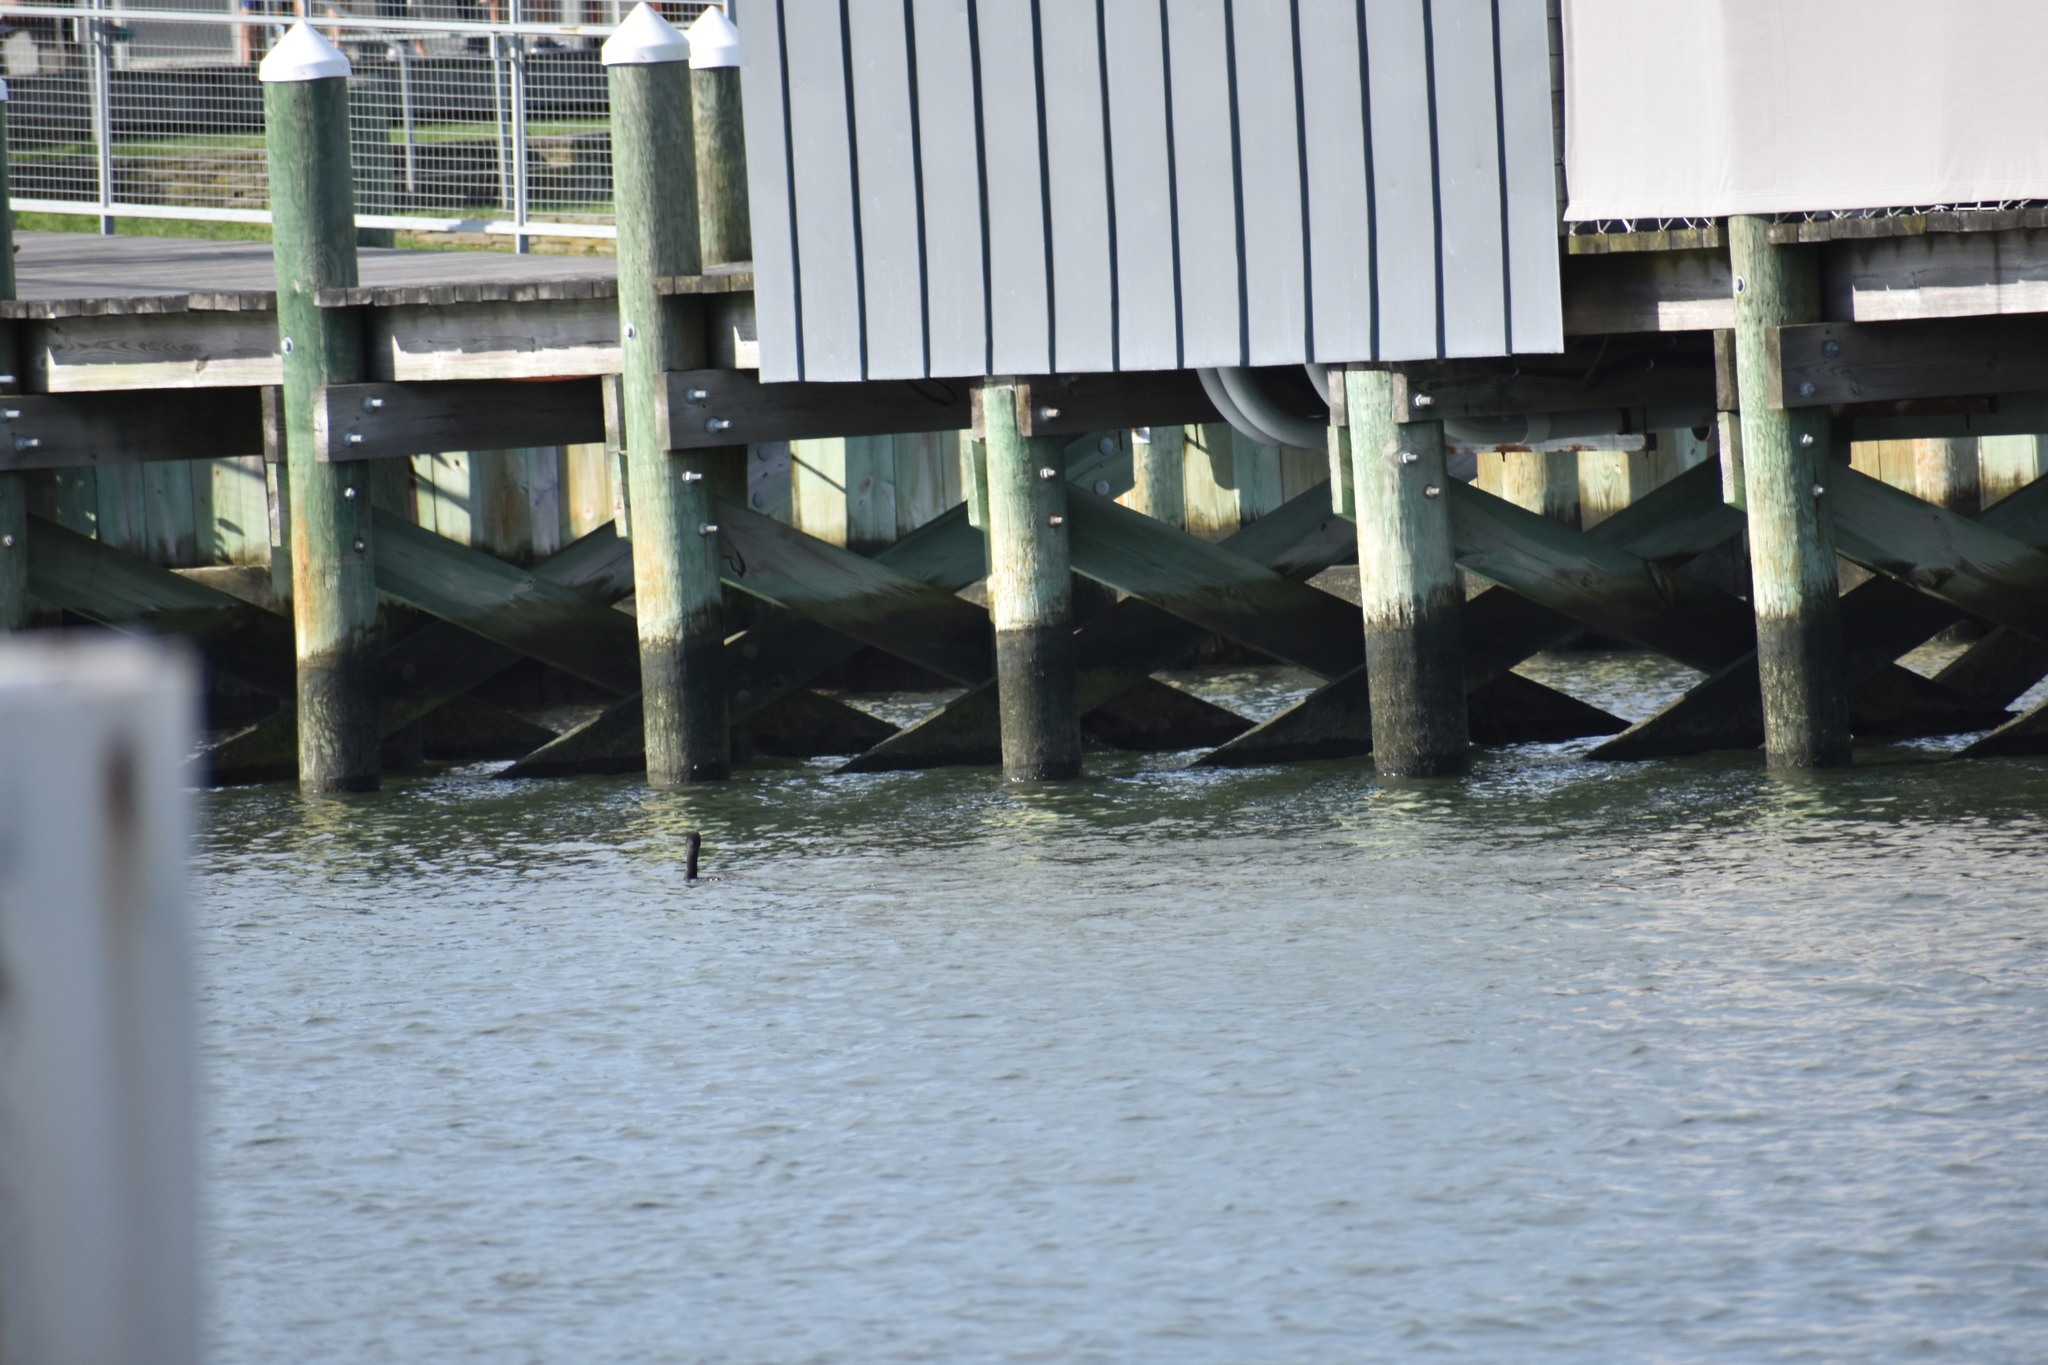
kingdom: Animalia
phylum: Chordata
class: Aves
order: Suliformes
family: Phalacrocoracidae
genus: Phalacrocorax
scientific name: Phalacrocorax auritus
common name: Double-crested cormorant
